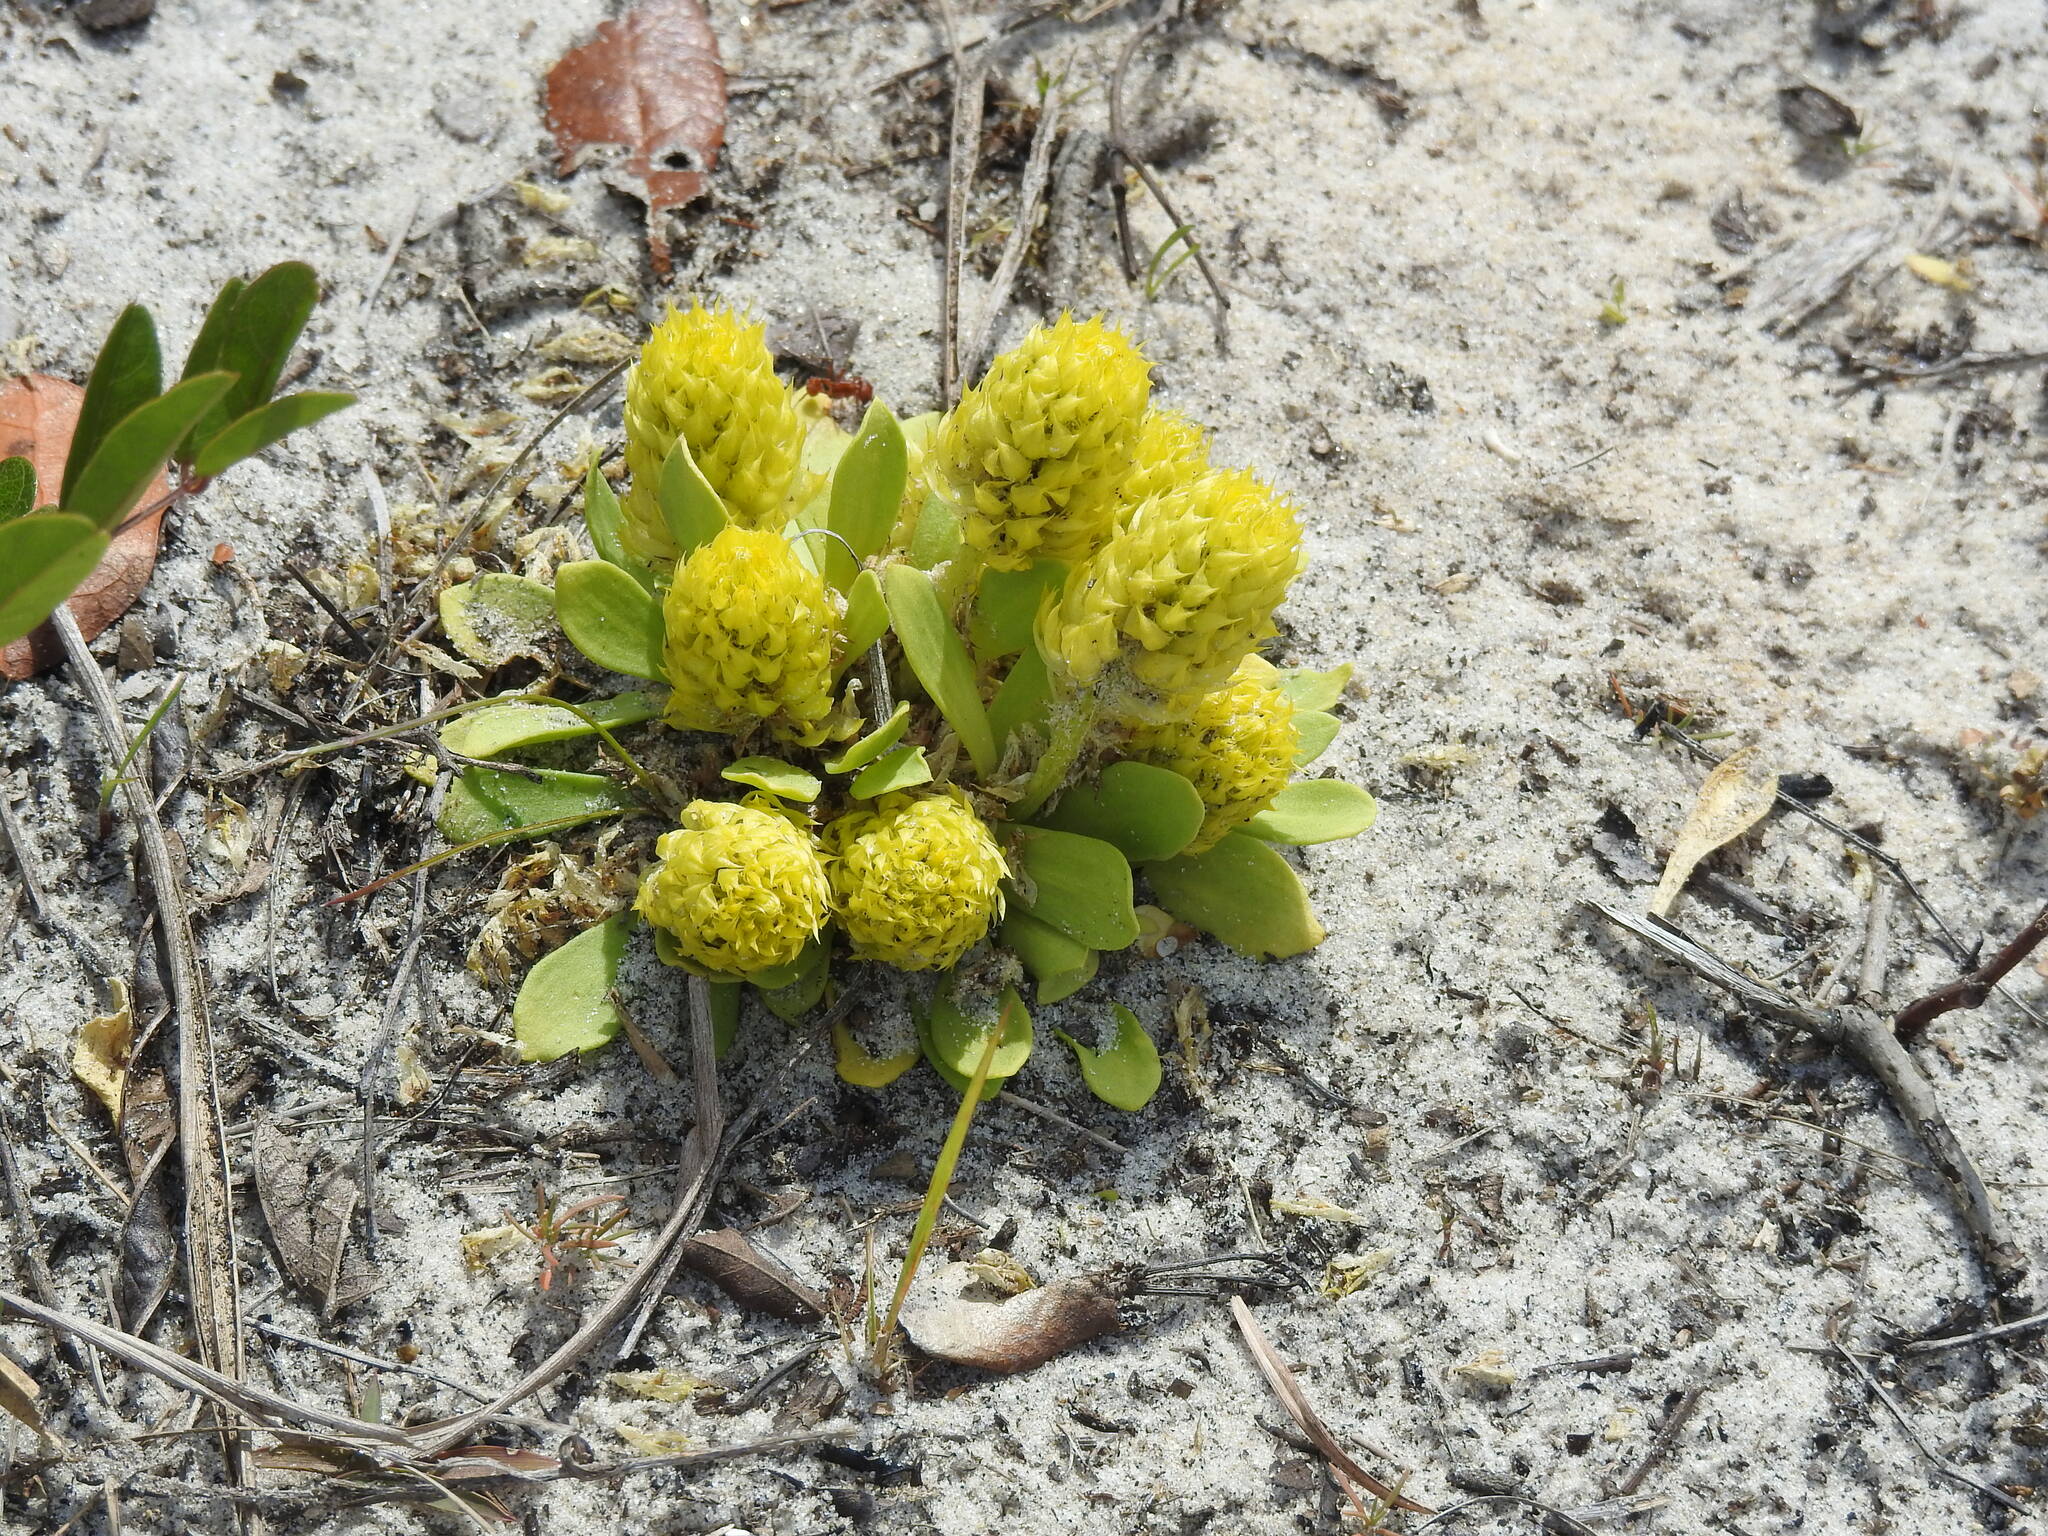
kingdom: Plantae
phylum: Tracheophyta
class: Magnoliopsida
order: Fabales
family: Polygalaceae
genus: Polygala
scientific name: Polygala nana
